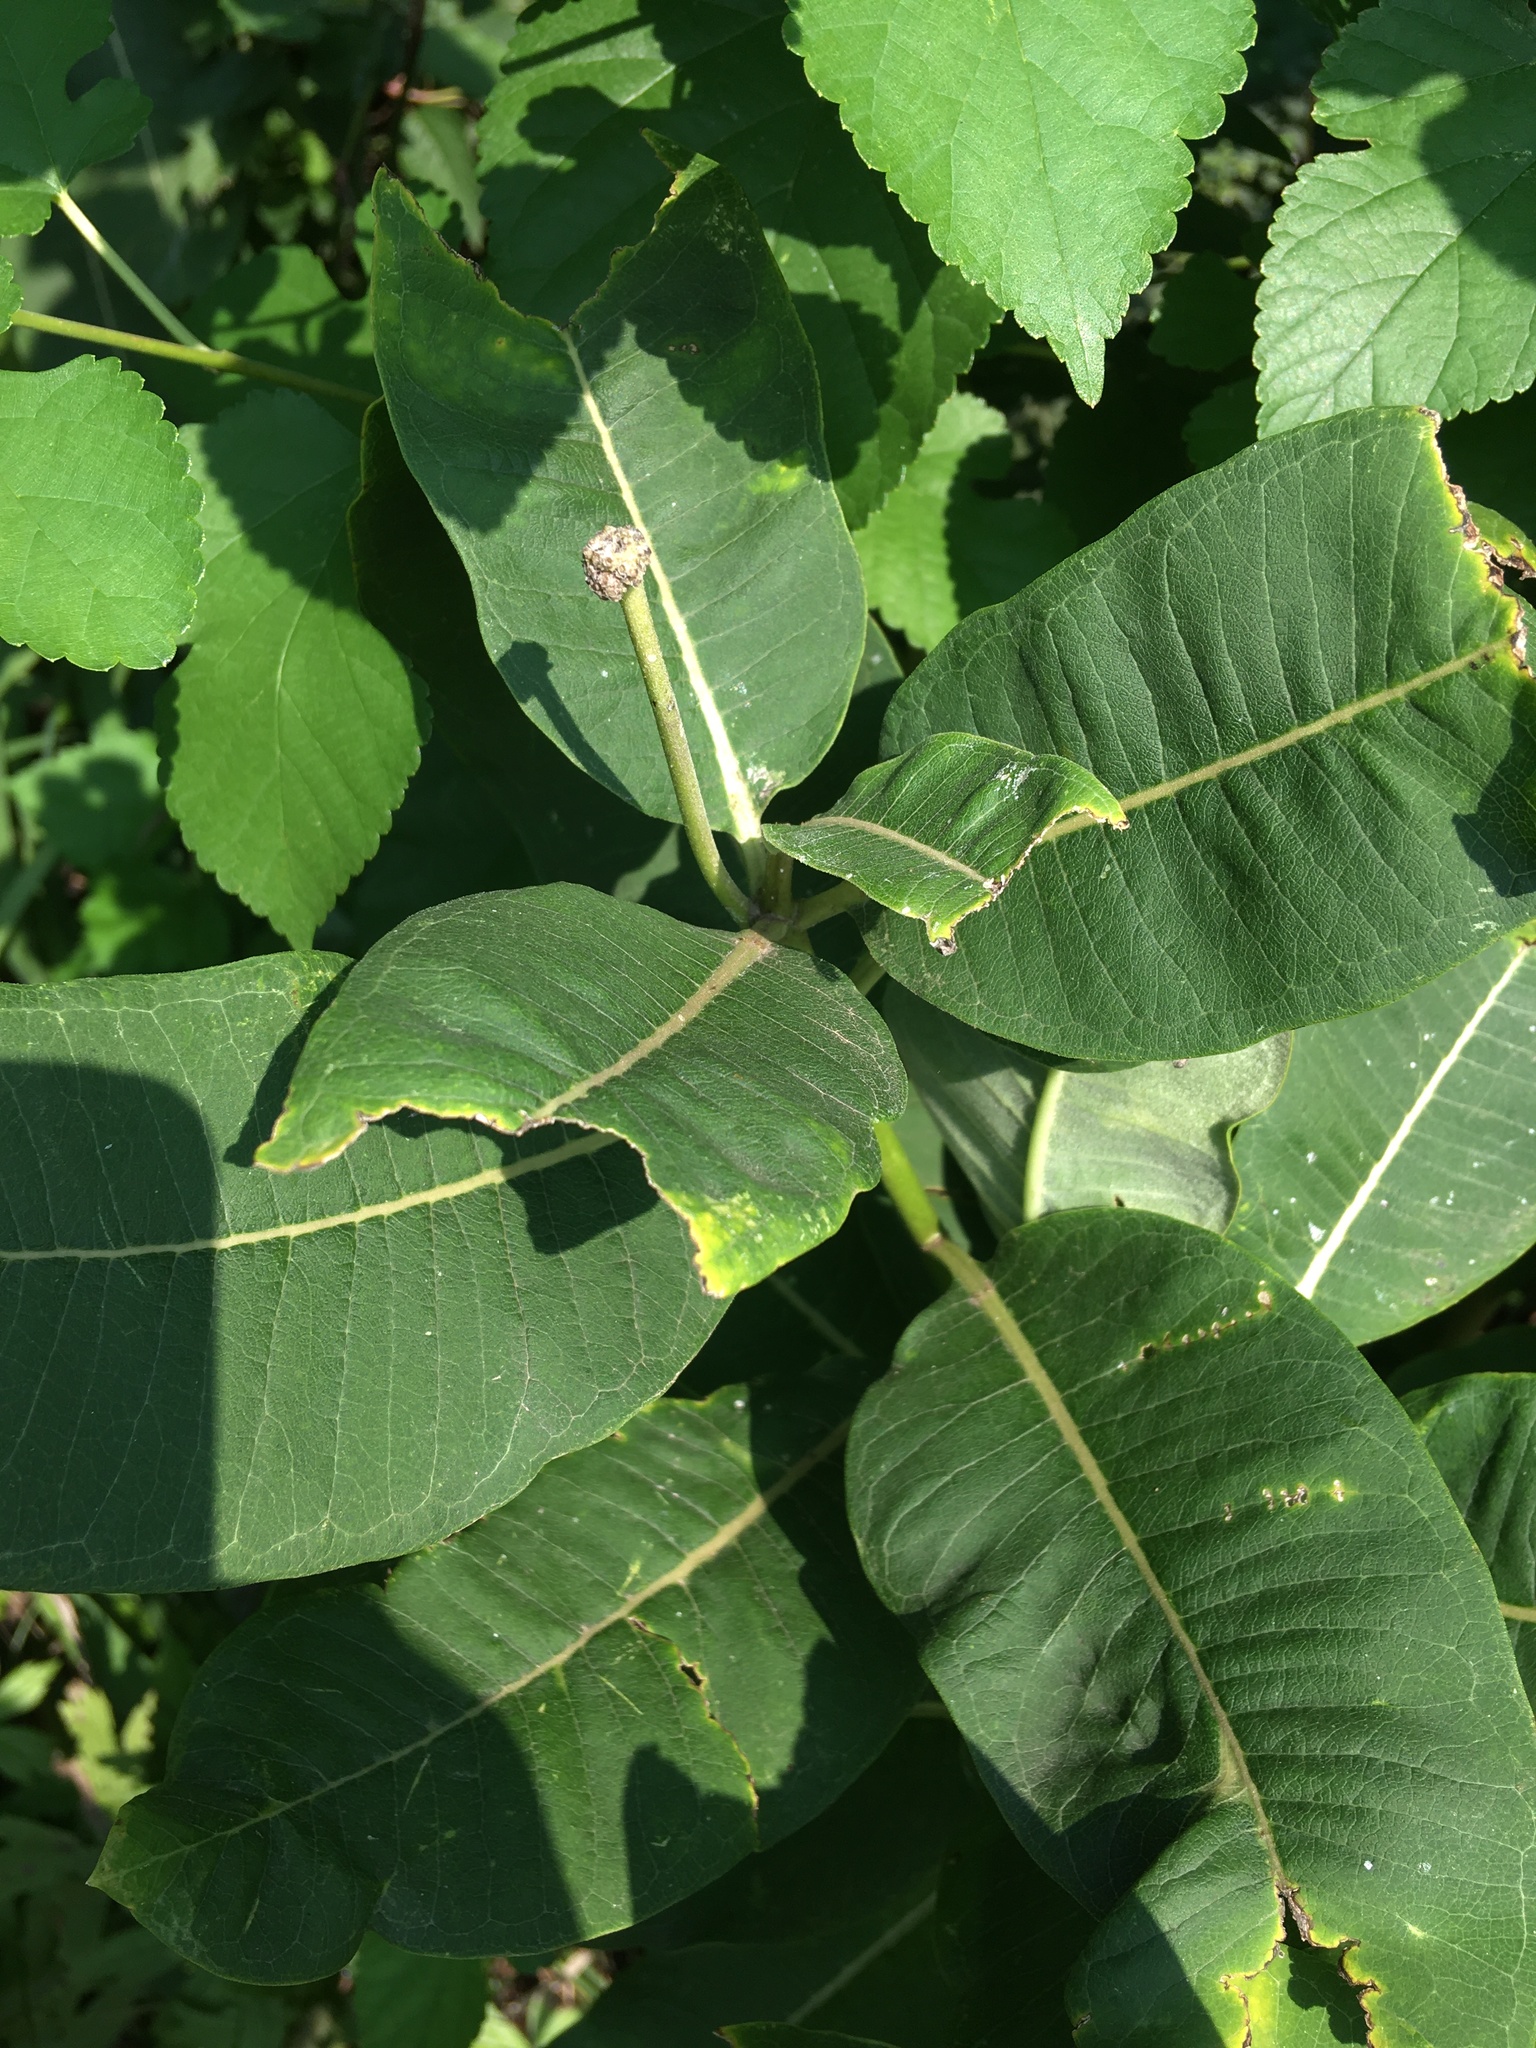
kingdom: Plantae
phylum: Tracheophyta
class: Magnoliopsida
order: Gentianales
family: Apocynaceae
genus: Asclepias
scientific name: Asclepias syriaca
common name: Common milkweed
